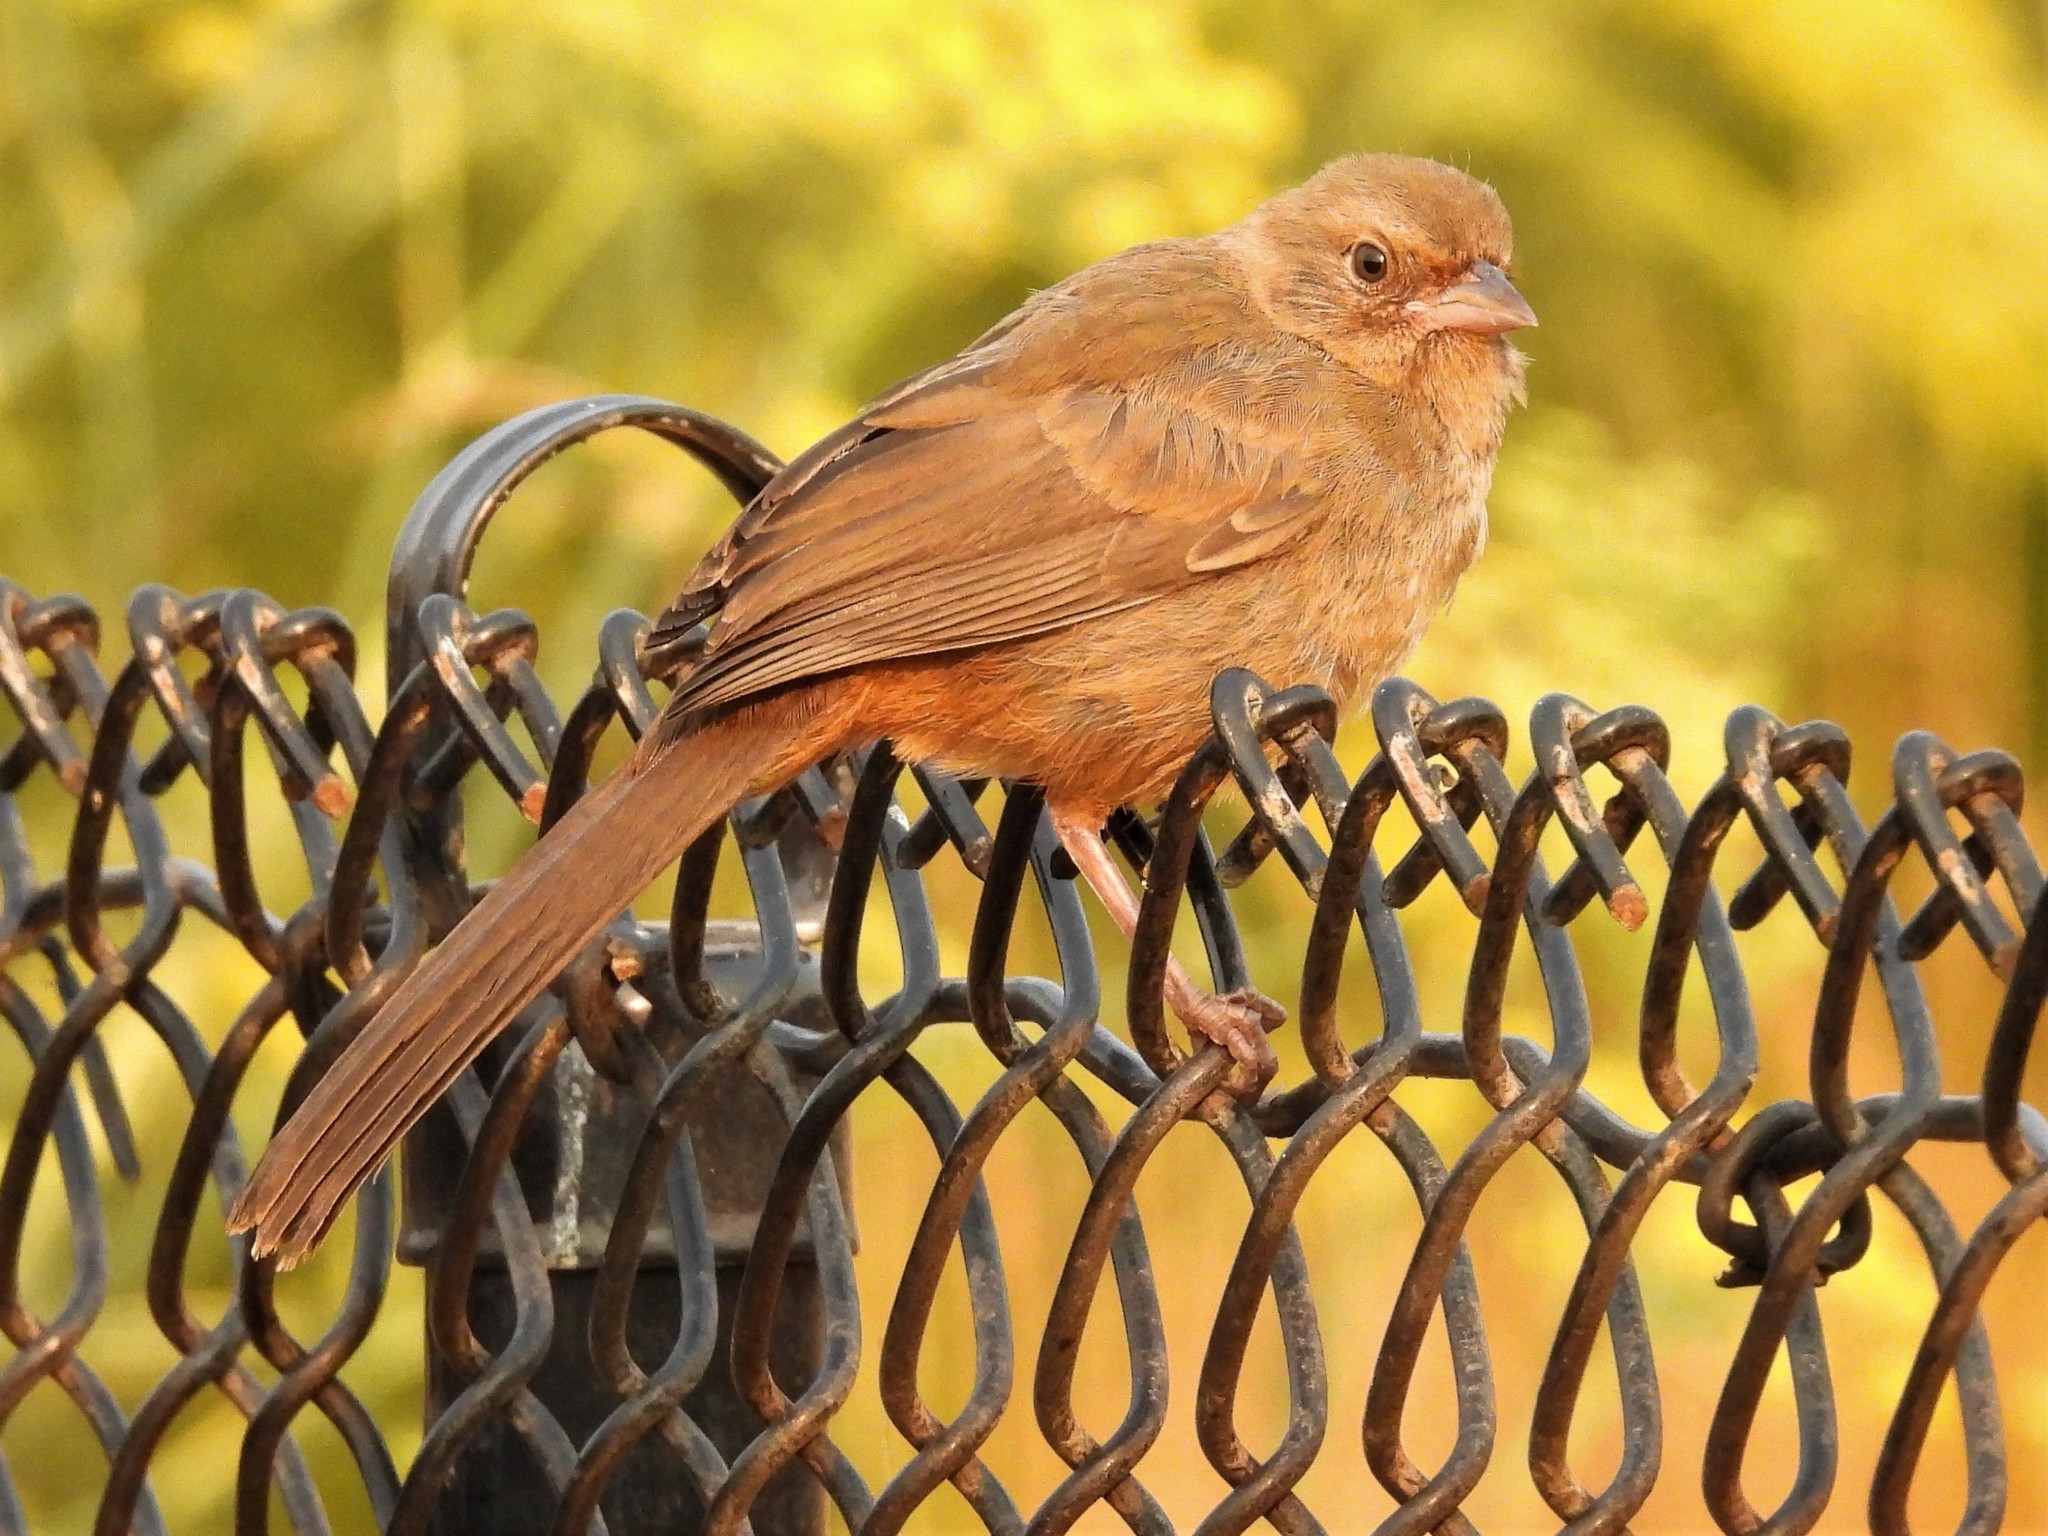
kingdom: Animalia
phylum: Chordata
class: Aves
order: Passeriformes
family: Passerellidae
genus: Melozone
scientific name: Melozone crissalis
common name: California towhee
